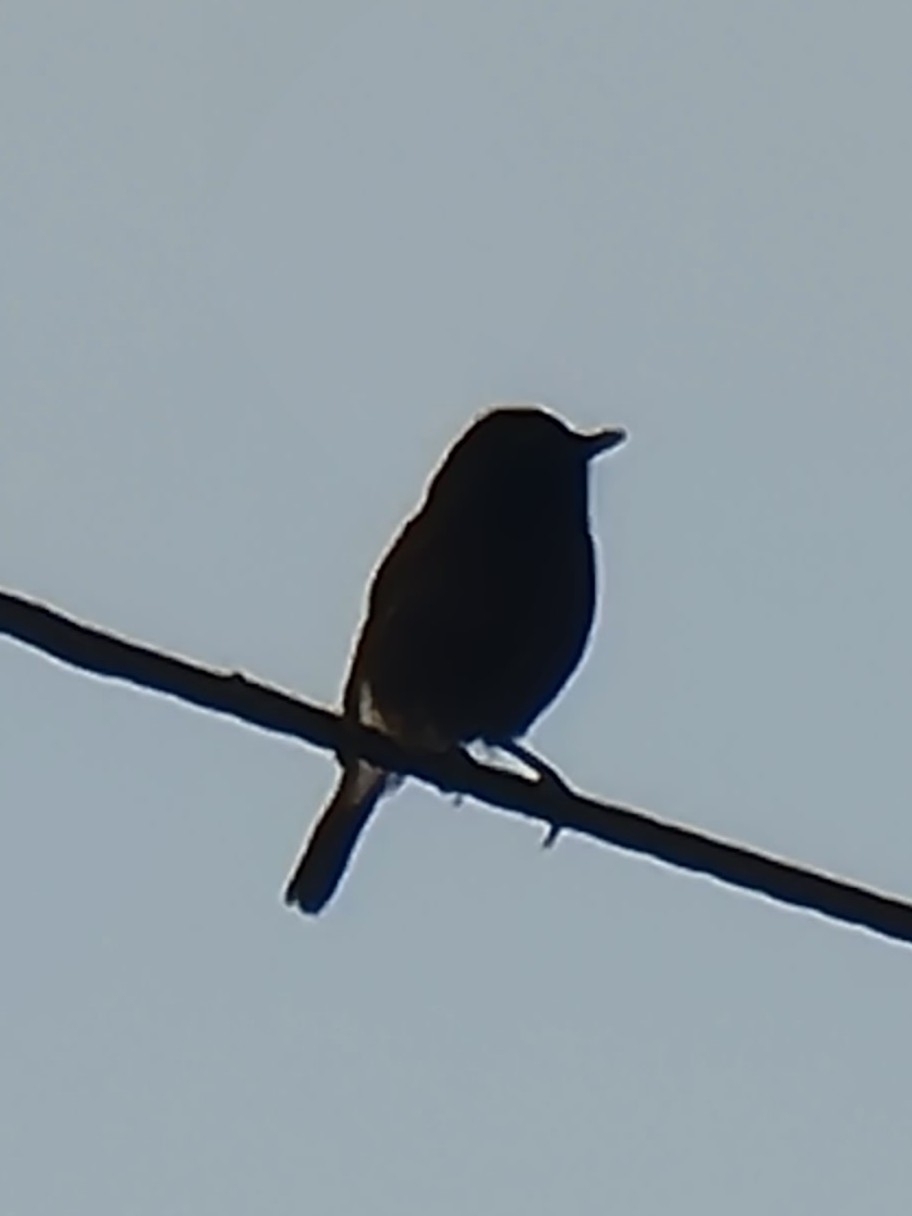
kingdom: Animalia
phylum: Chordata
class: Aves
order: Passeriformes
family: Muscicapidae
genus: Saxicola
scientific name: Saxicola caprata
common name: Pied bush chat
